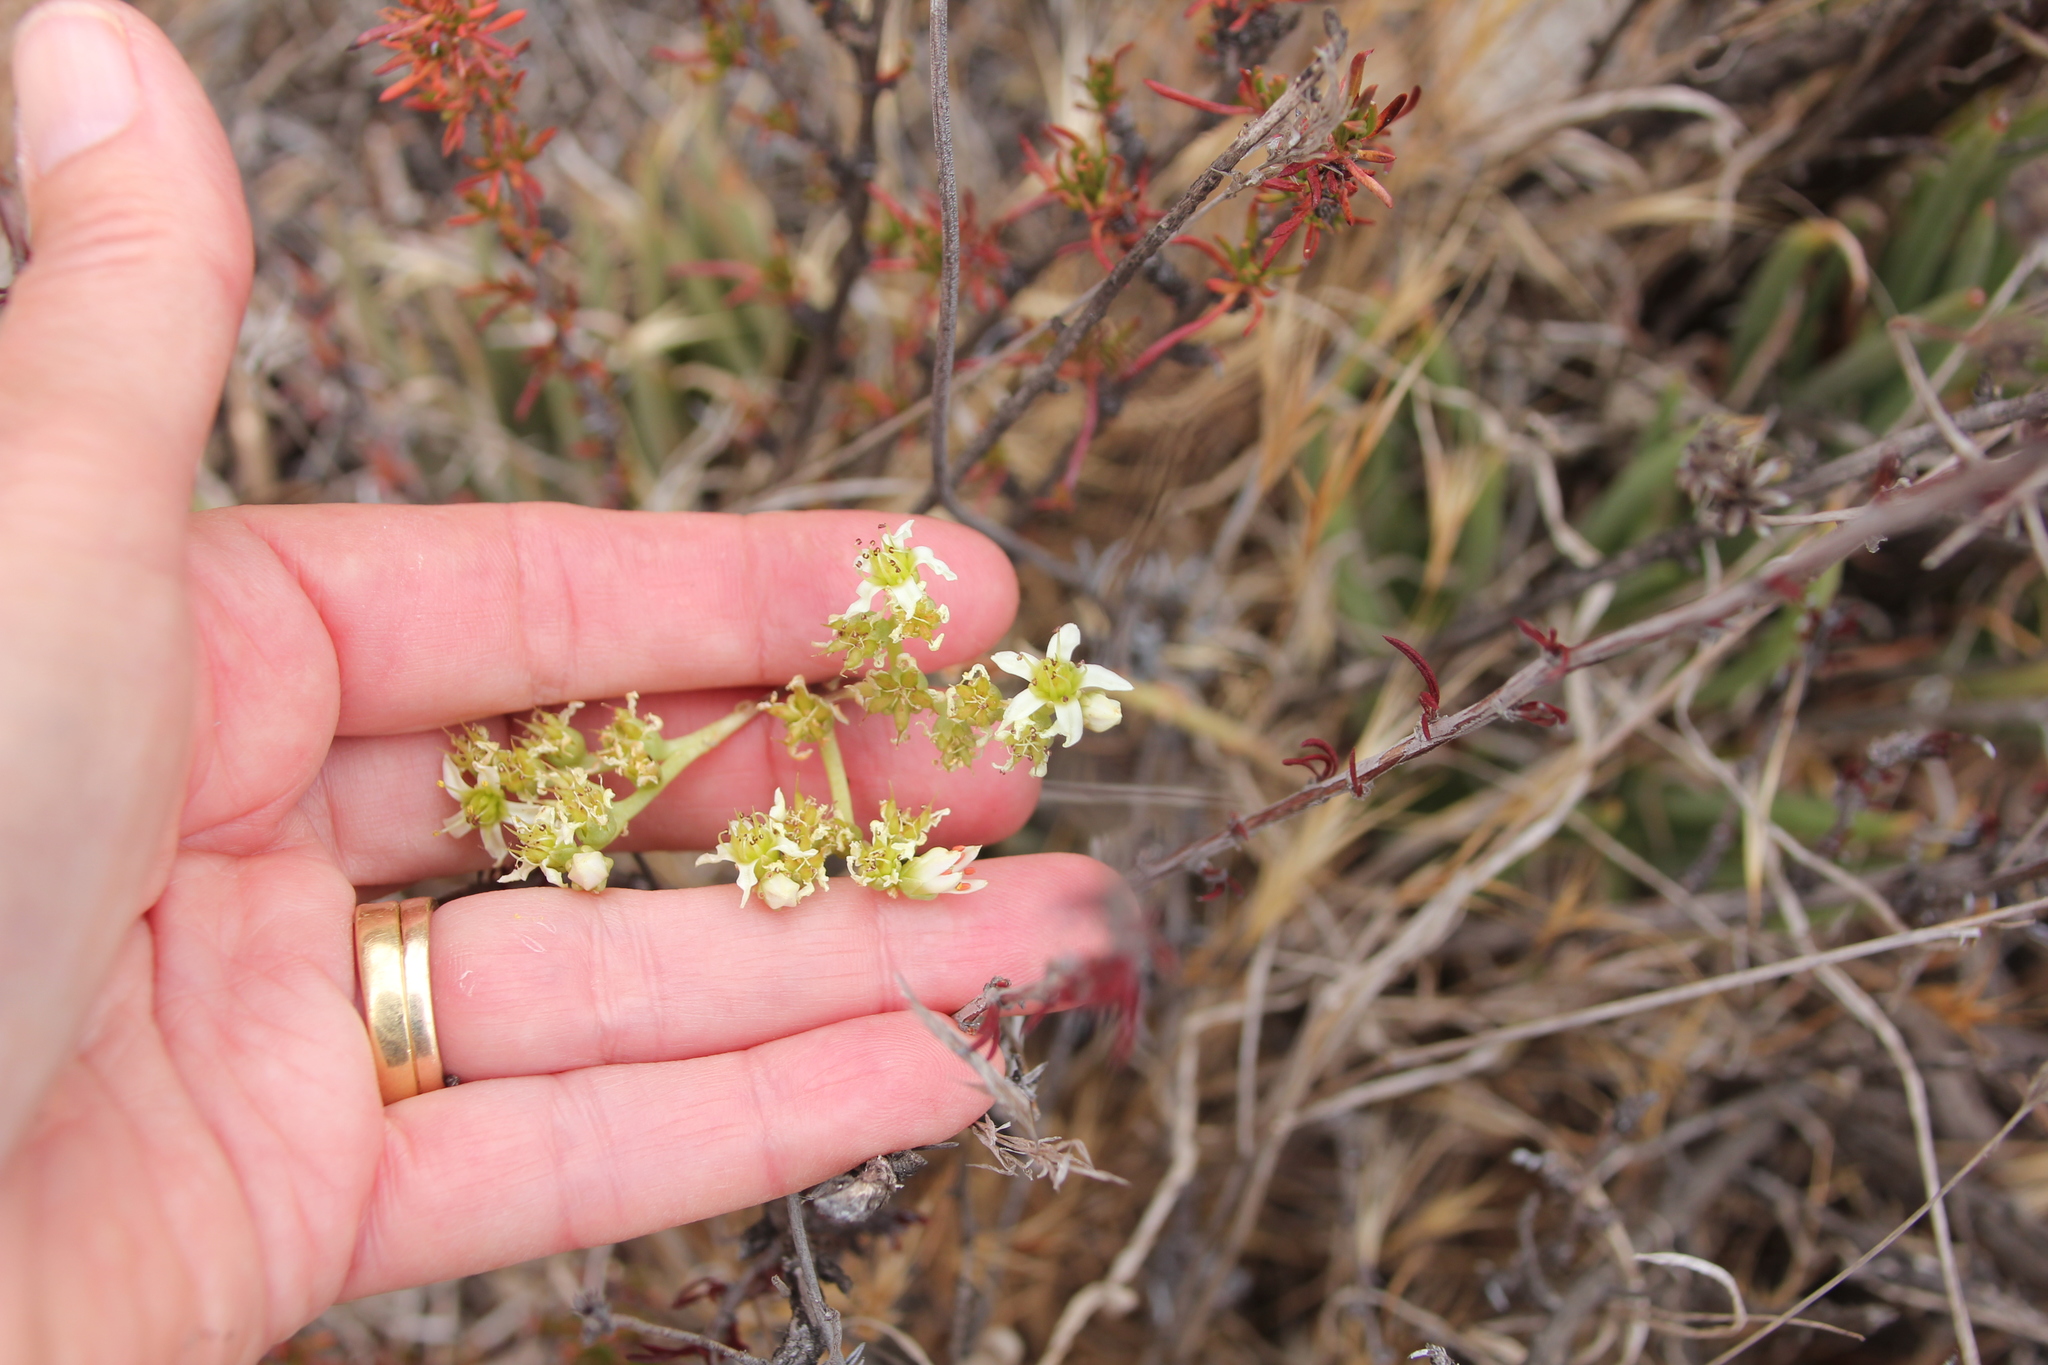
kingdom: Plantae
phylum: Tracheophyta
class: Magnoliopsida
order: Saxifragales
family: Crassulaceae
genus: Dudleya
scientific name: Dudleya edulis
